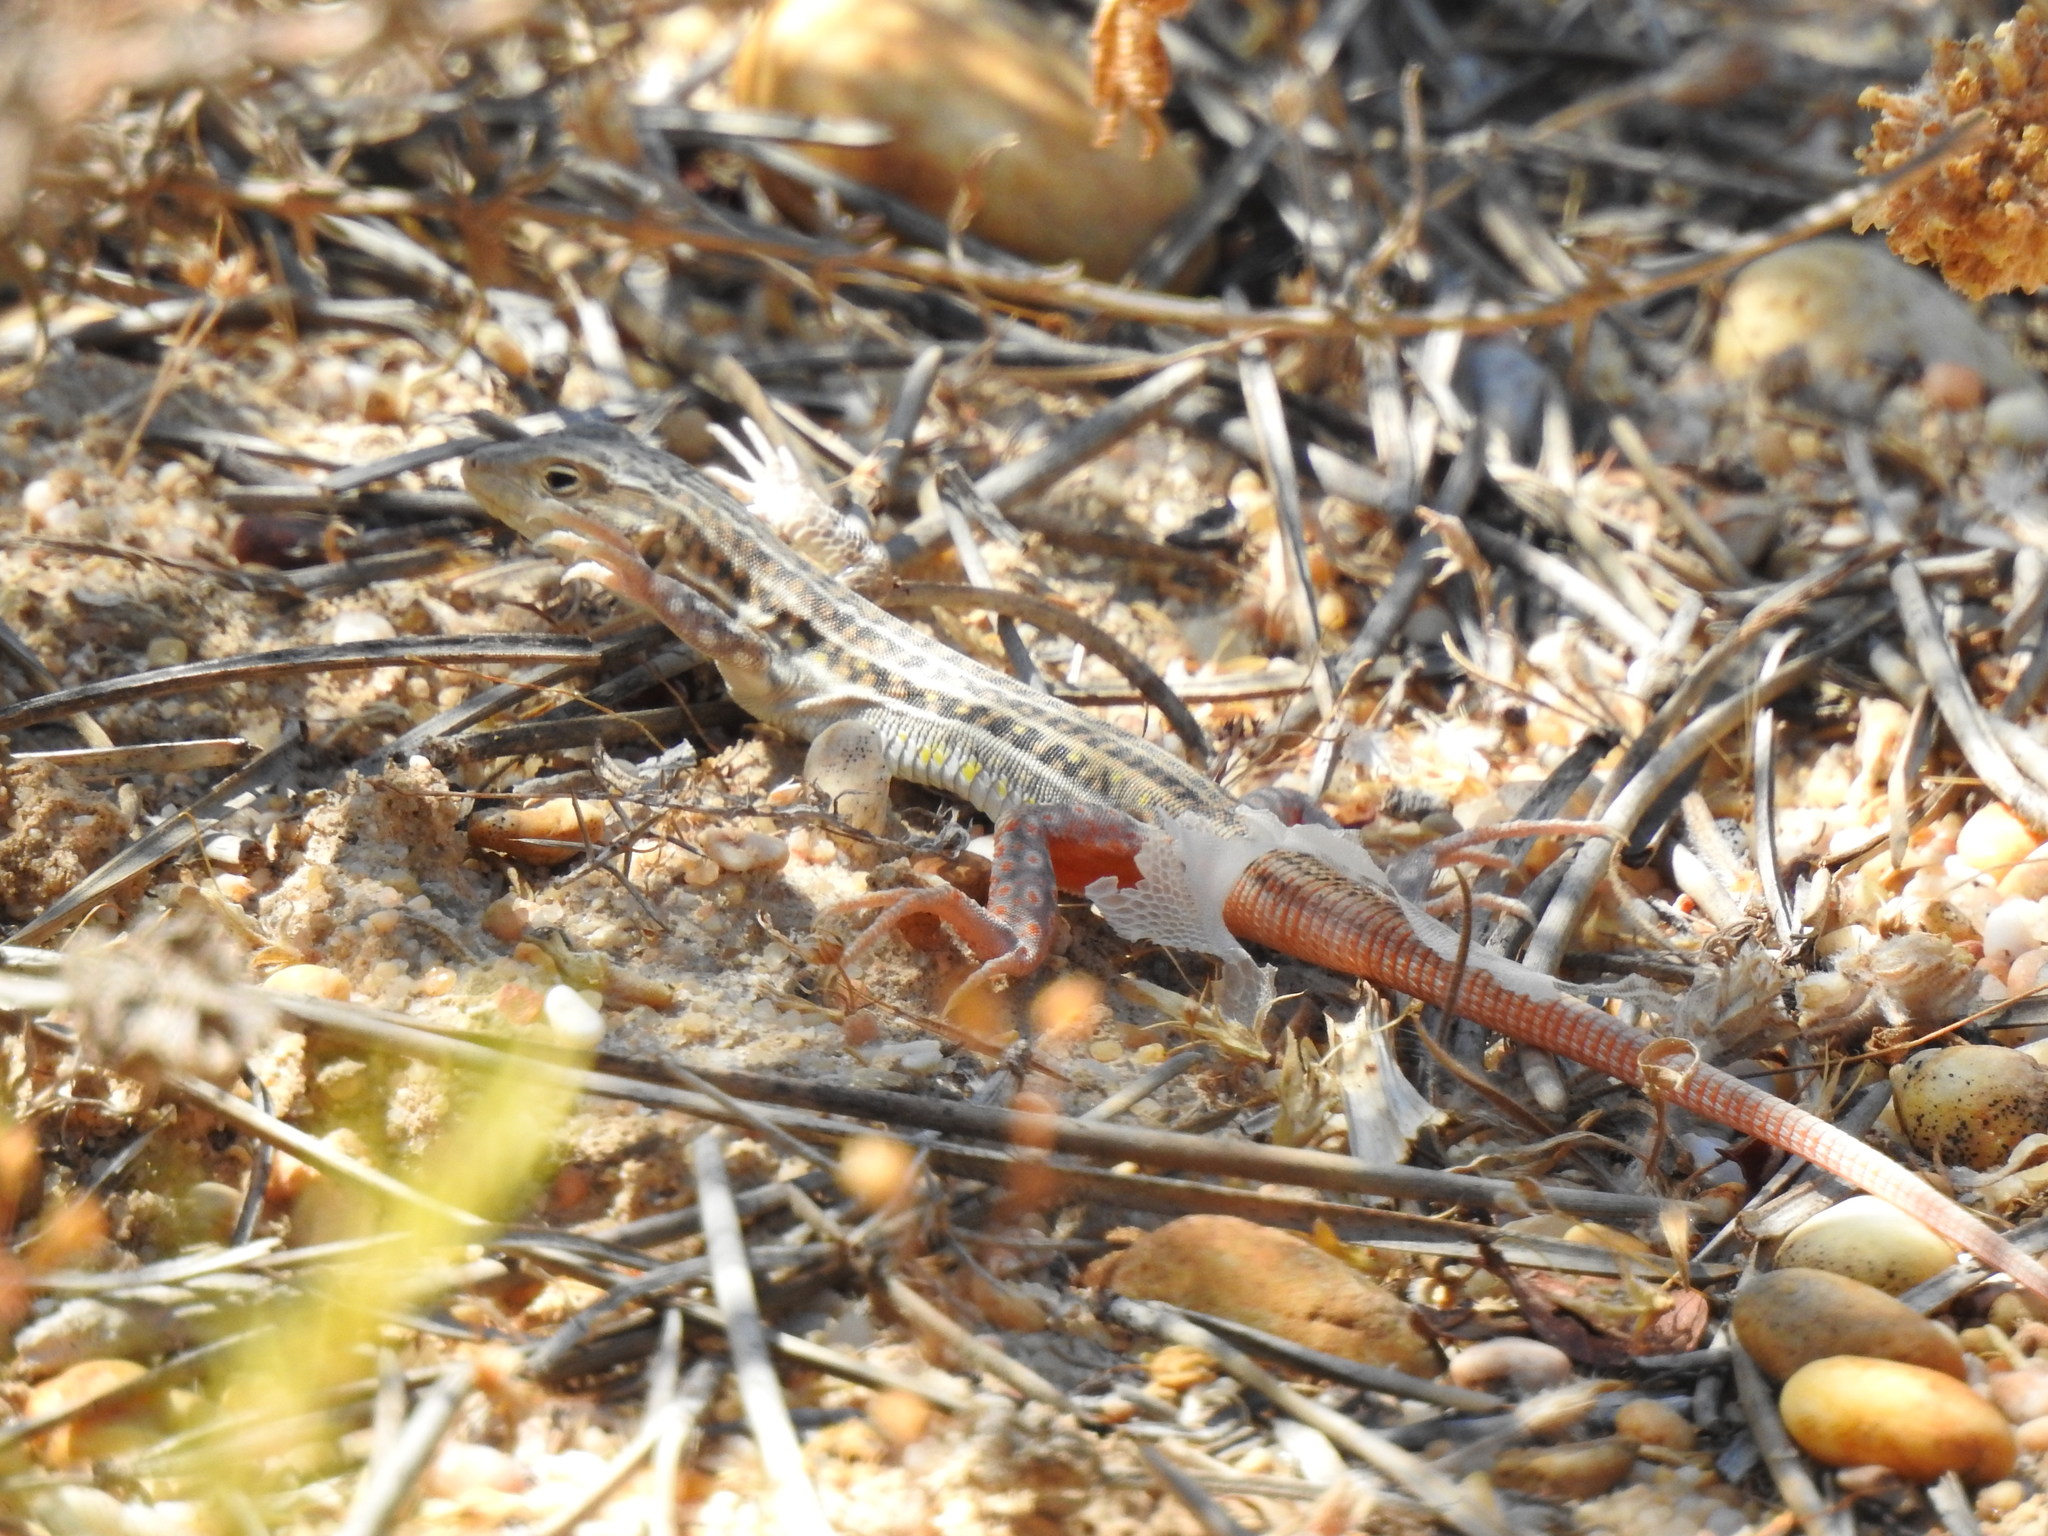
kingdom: Animalia
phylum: Chordata
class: Squamata
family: Lacertidae
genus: Acanthodactylus
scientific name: Acanthodactylus erythrurus
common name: Spiny-footed lizard
